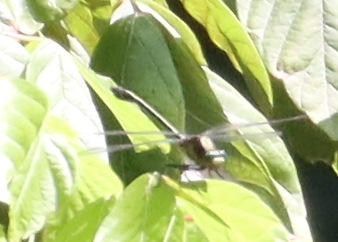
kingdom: Animalia
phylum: Arthropoda
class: Insecta
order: Odonata
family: Gomphidae
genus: Dromogomphus
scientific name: Dromogomphus spinosus
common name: Black-shouldered spinyleg
